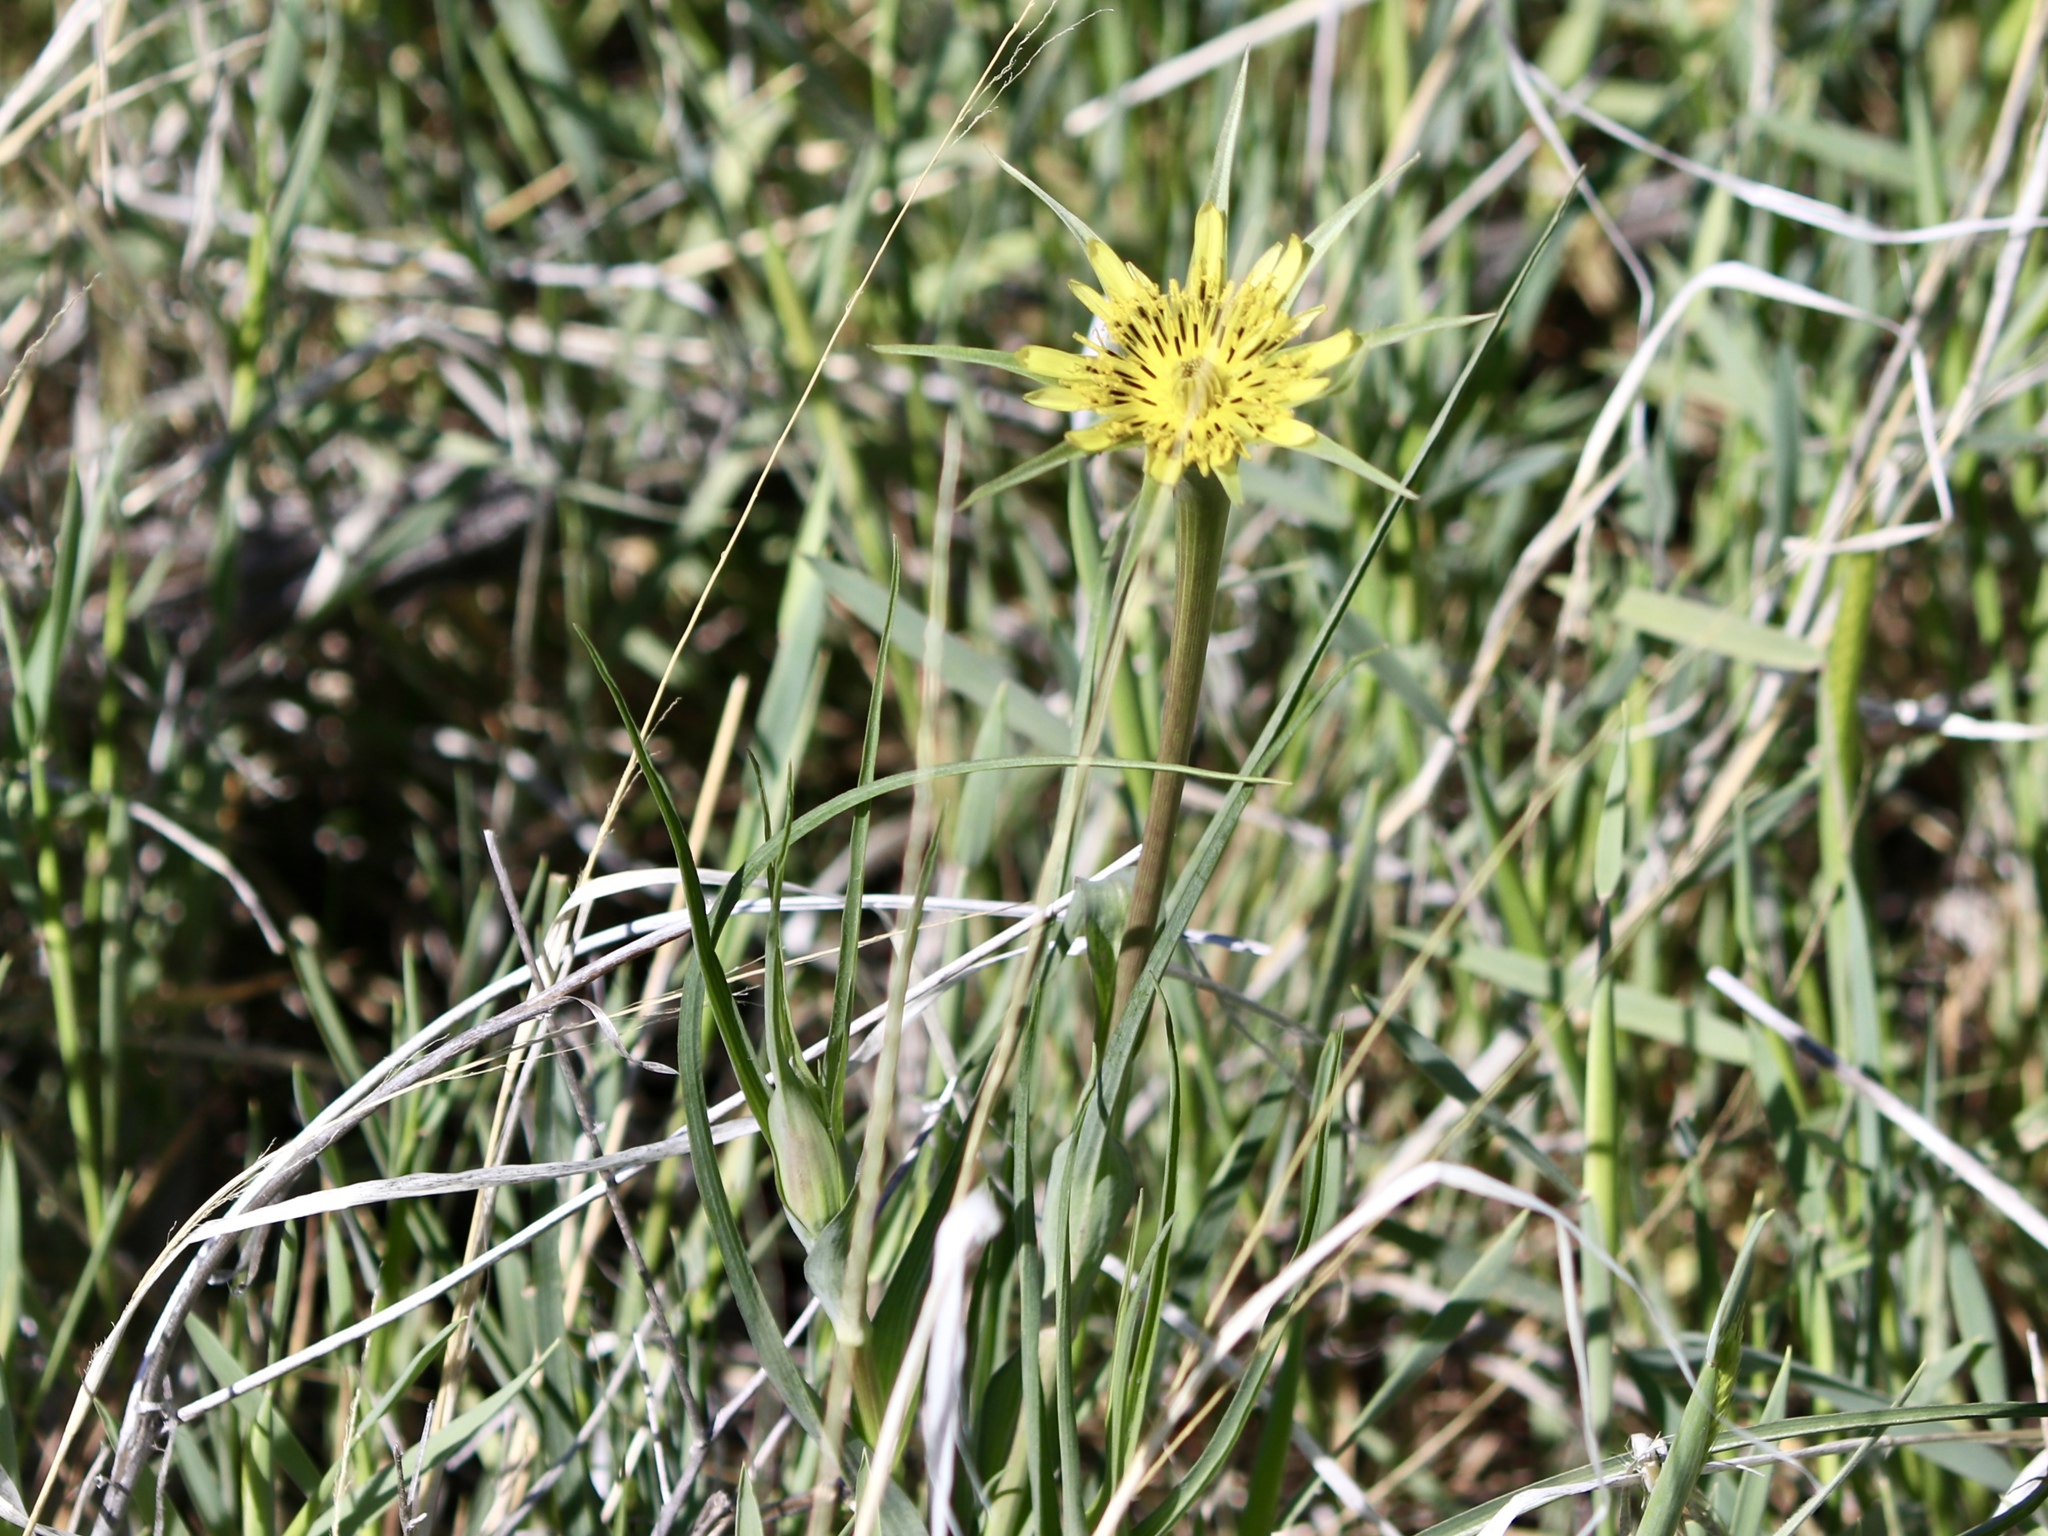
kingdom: Plantae
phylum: Tracheophyta
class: Magnoliopsida
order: Asterales
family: Asteraceae
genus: Tragopogon
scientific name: Tragopogon dubius
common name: Yellow salsify
